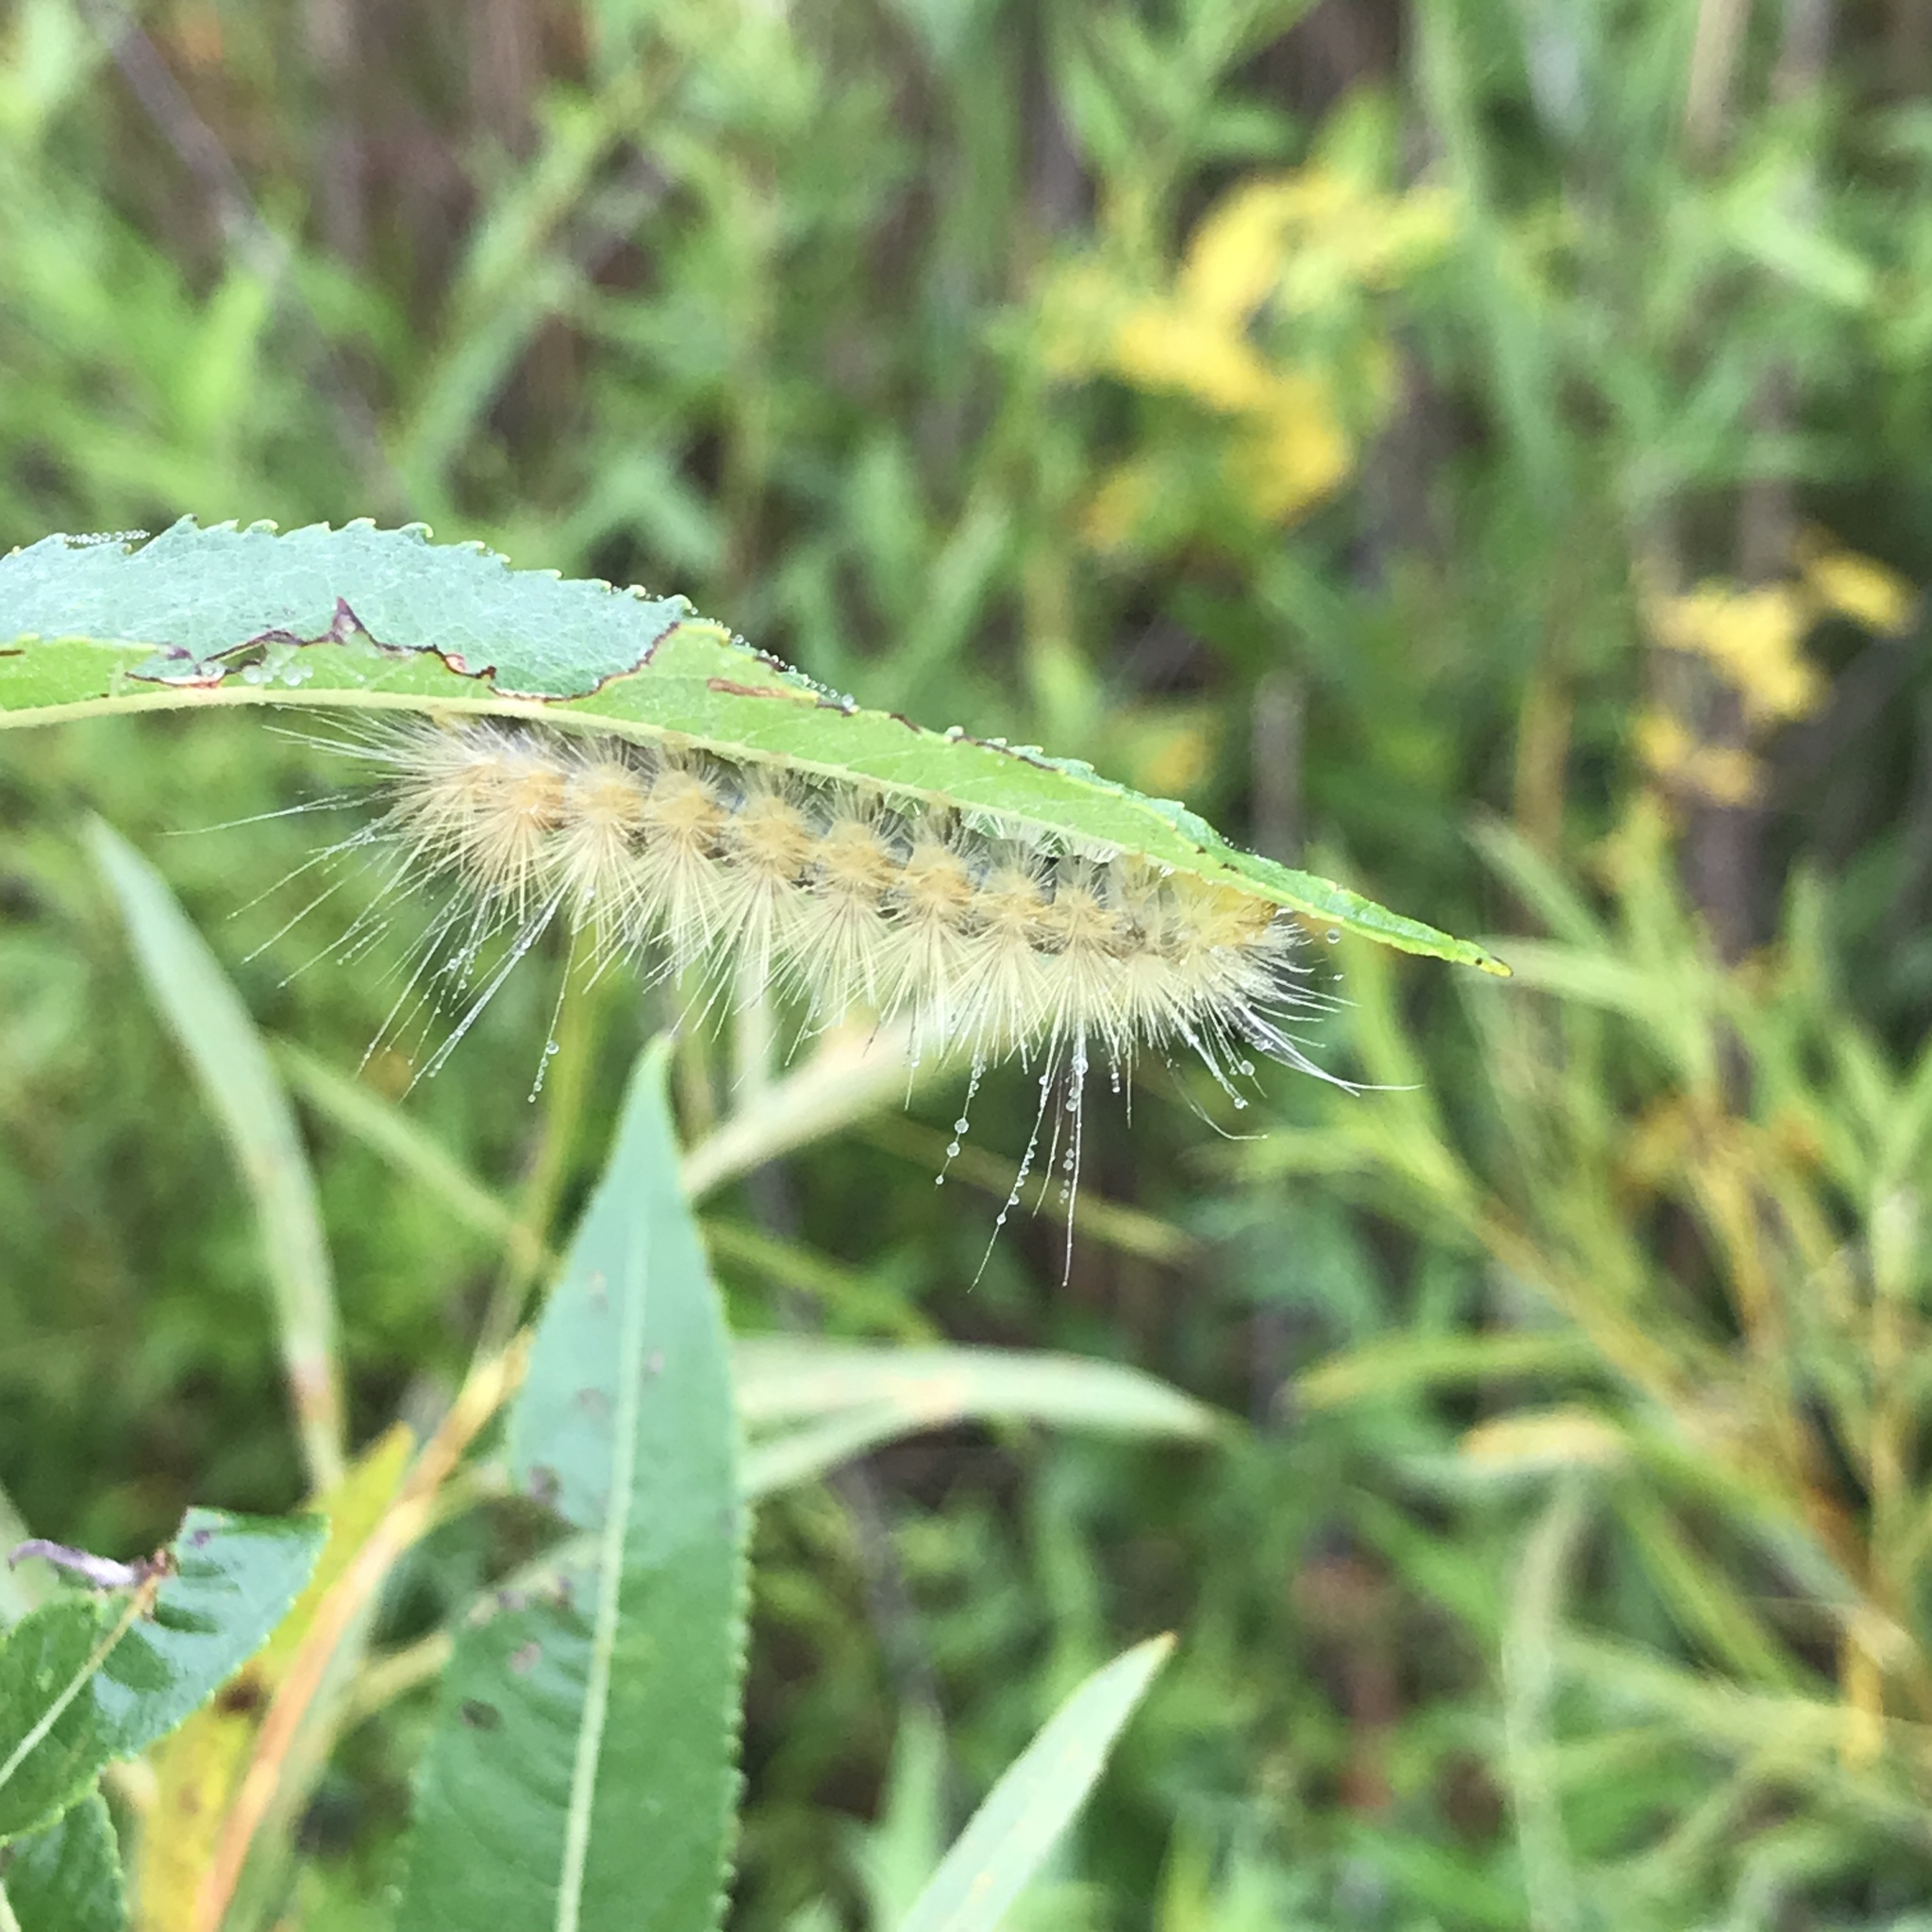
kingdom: Animalia
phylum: Arthropoda
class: Insecta
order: Lepidoptera
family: Erebidae
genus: Spilosoma
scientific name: Spilosoma virginica
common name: Virginia tiger moth
